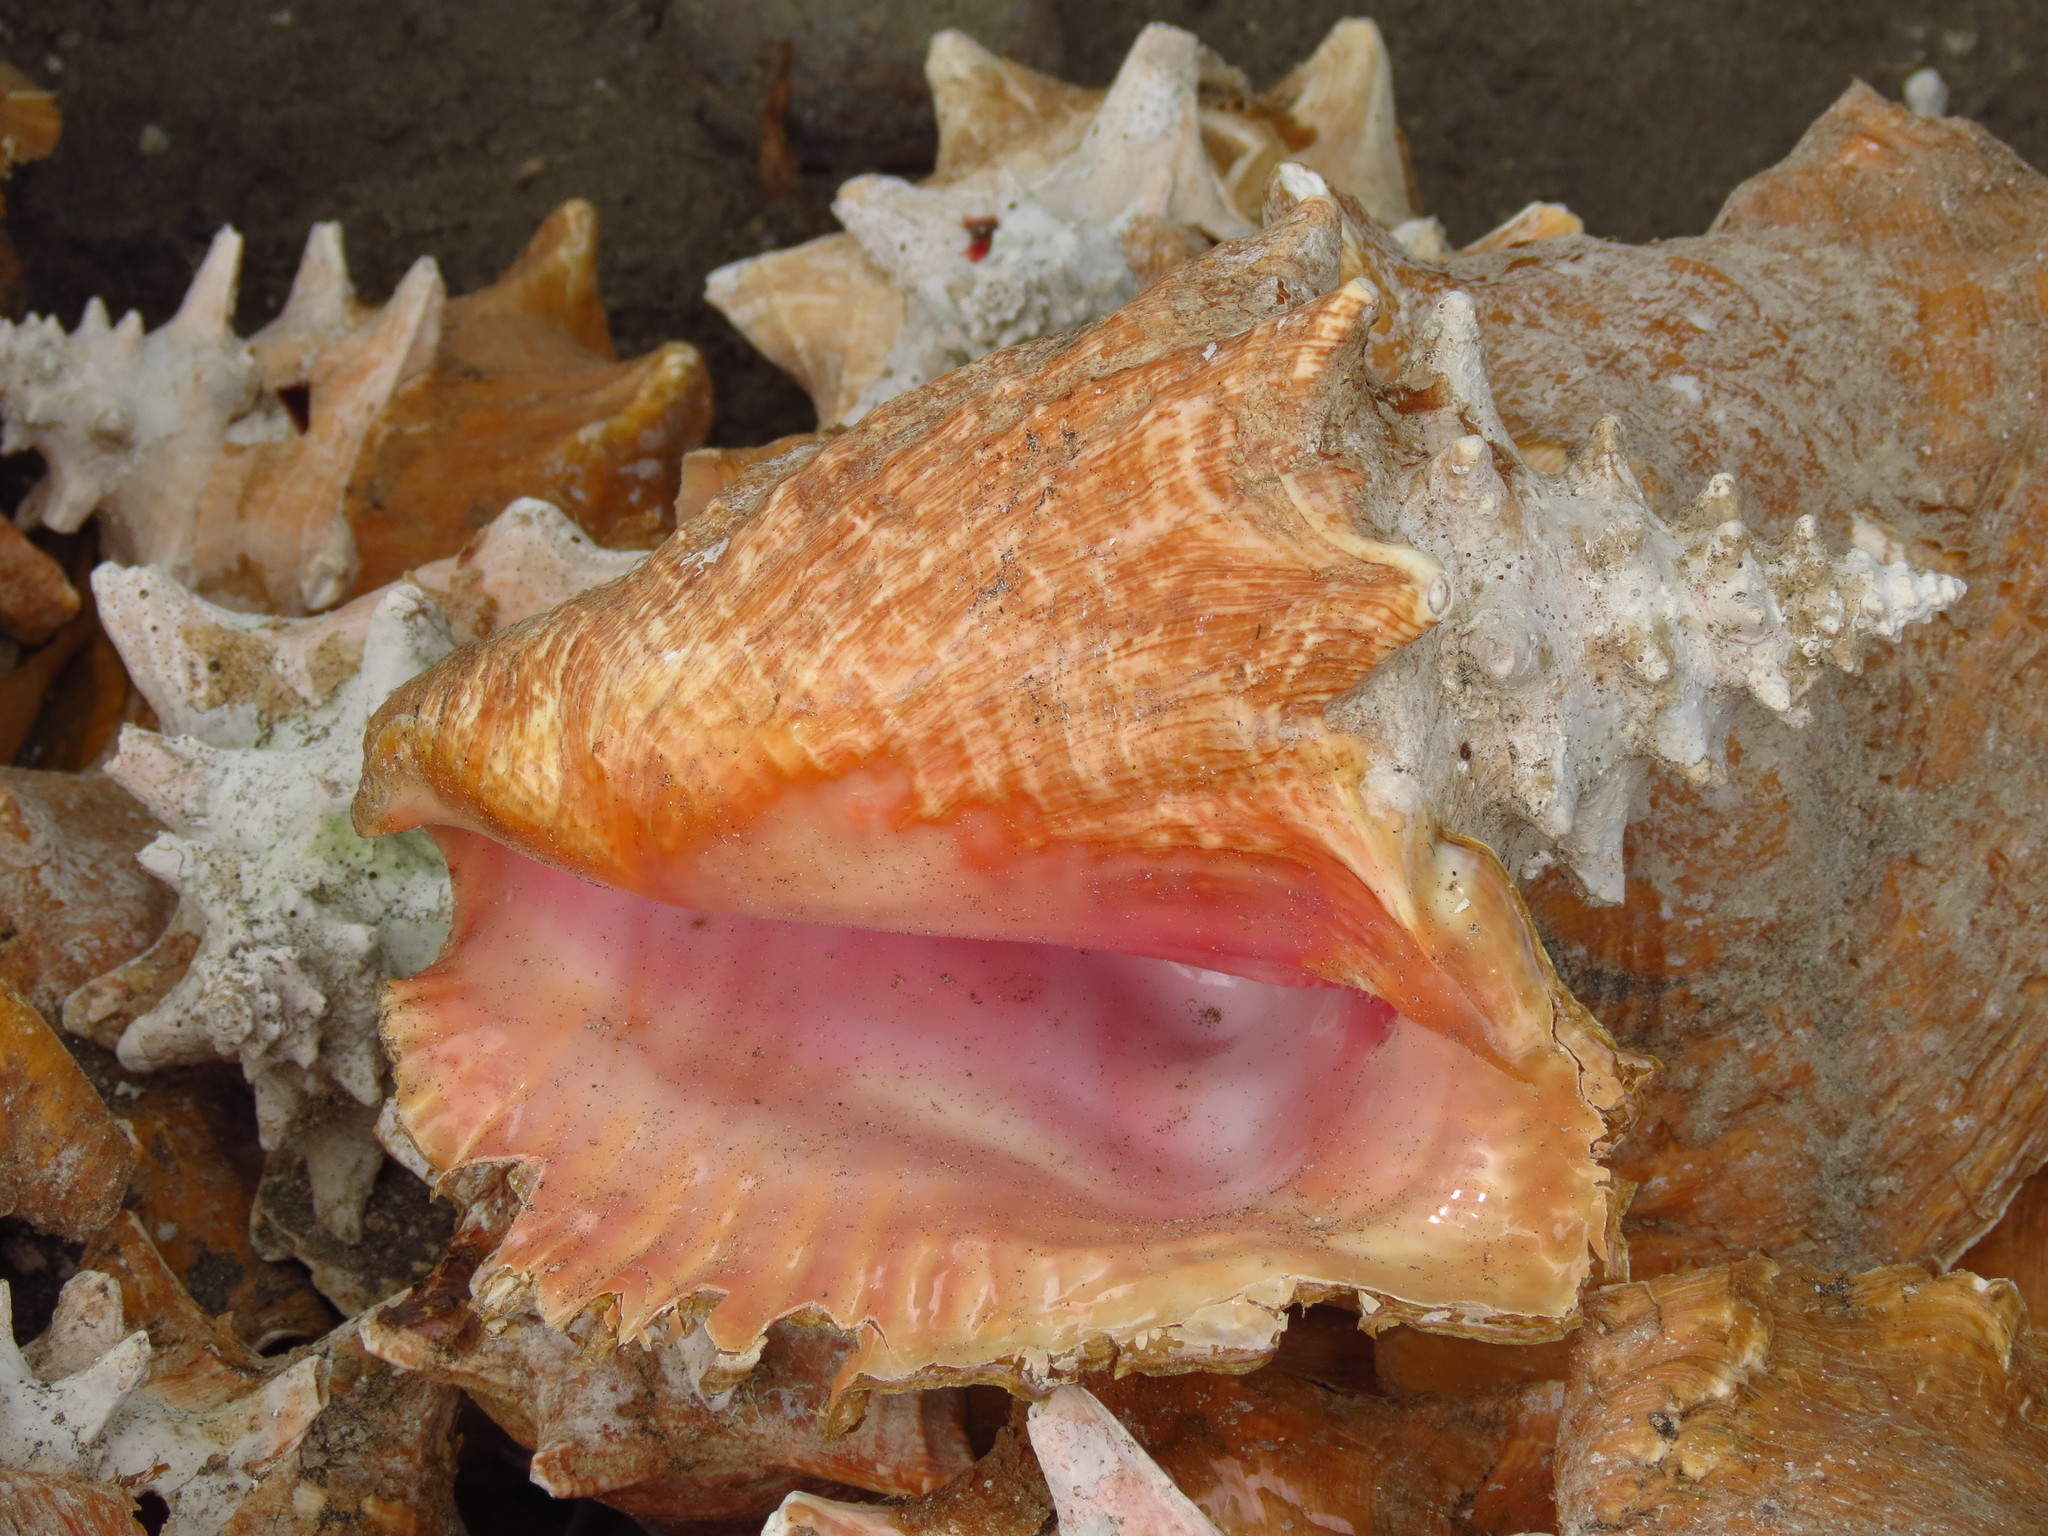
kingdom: Animalia
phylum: Mollusca
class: Gastropoda
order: Littorinimorpha
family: Strombidae
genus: Aliger
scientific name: Aliger gigas
